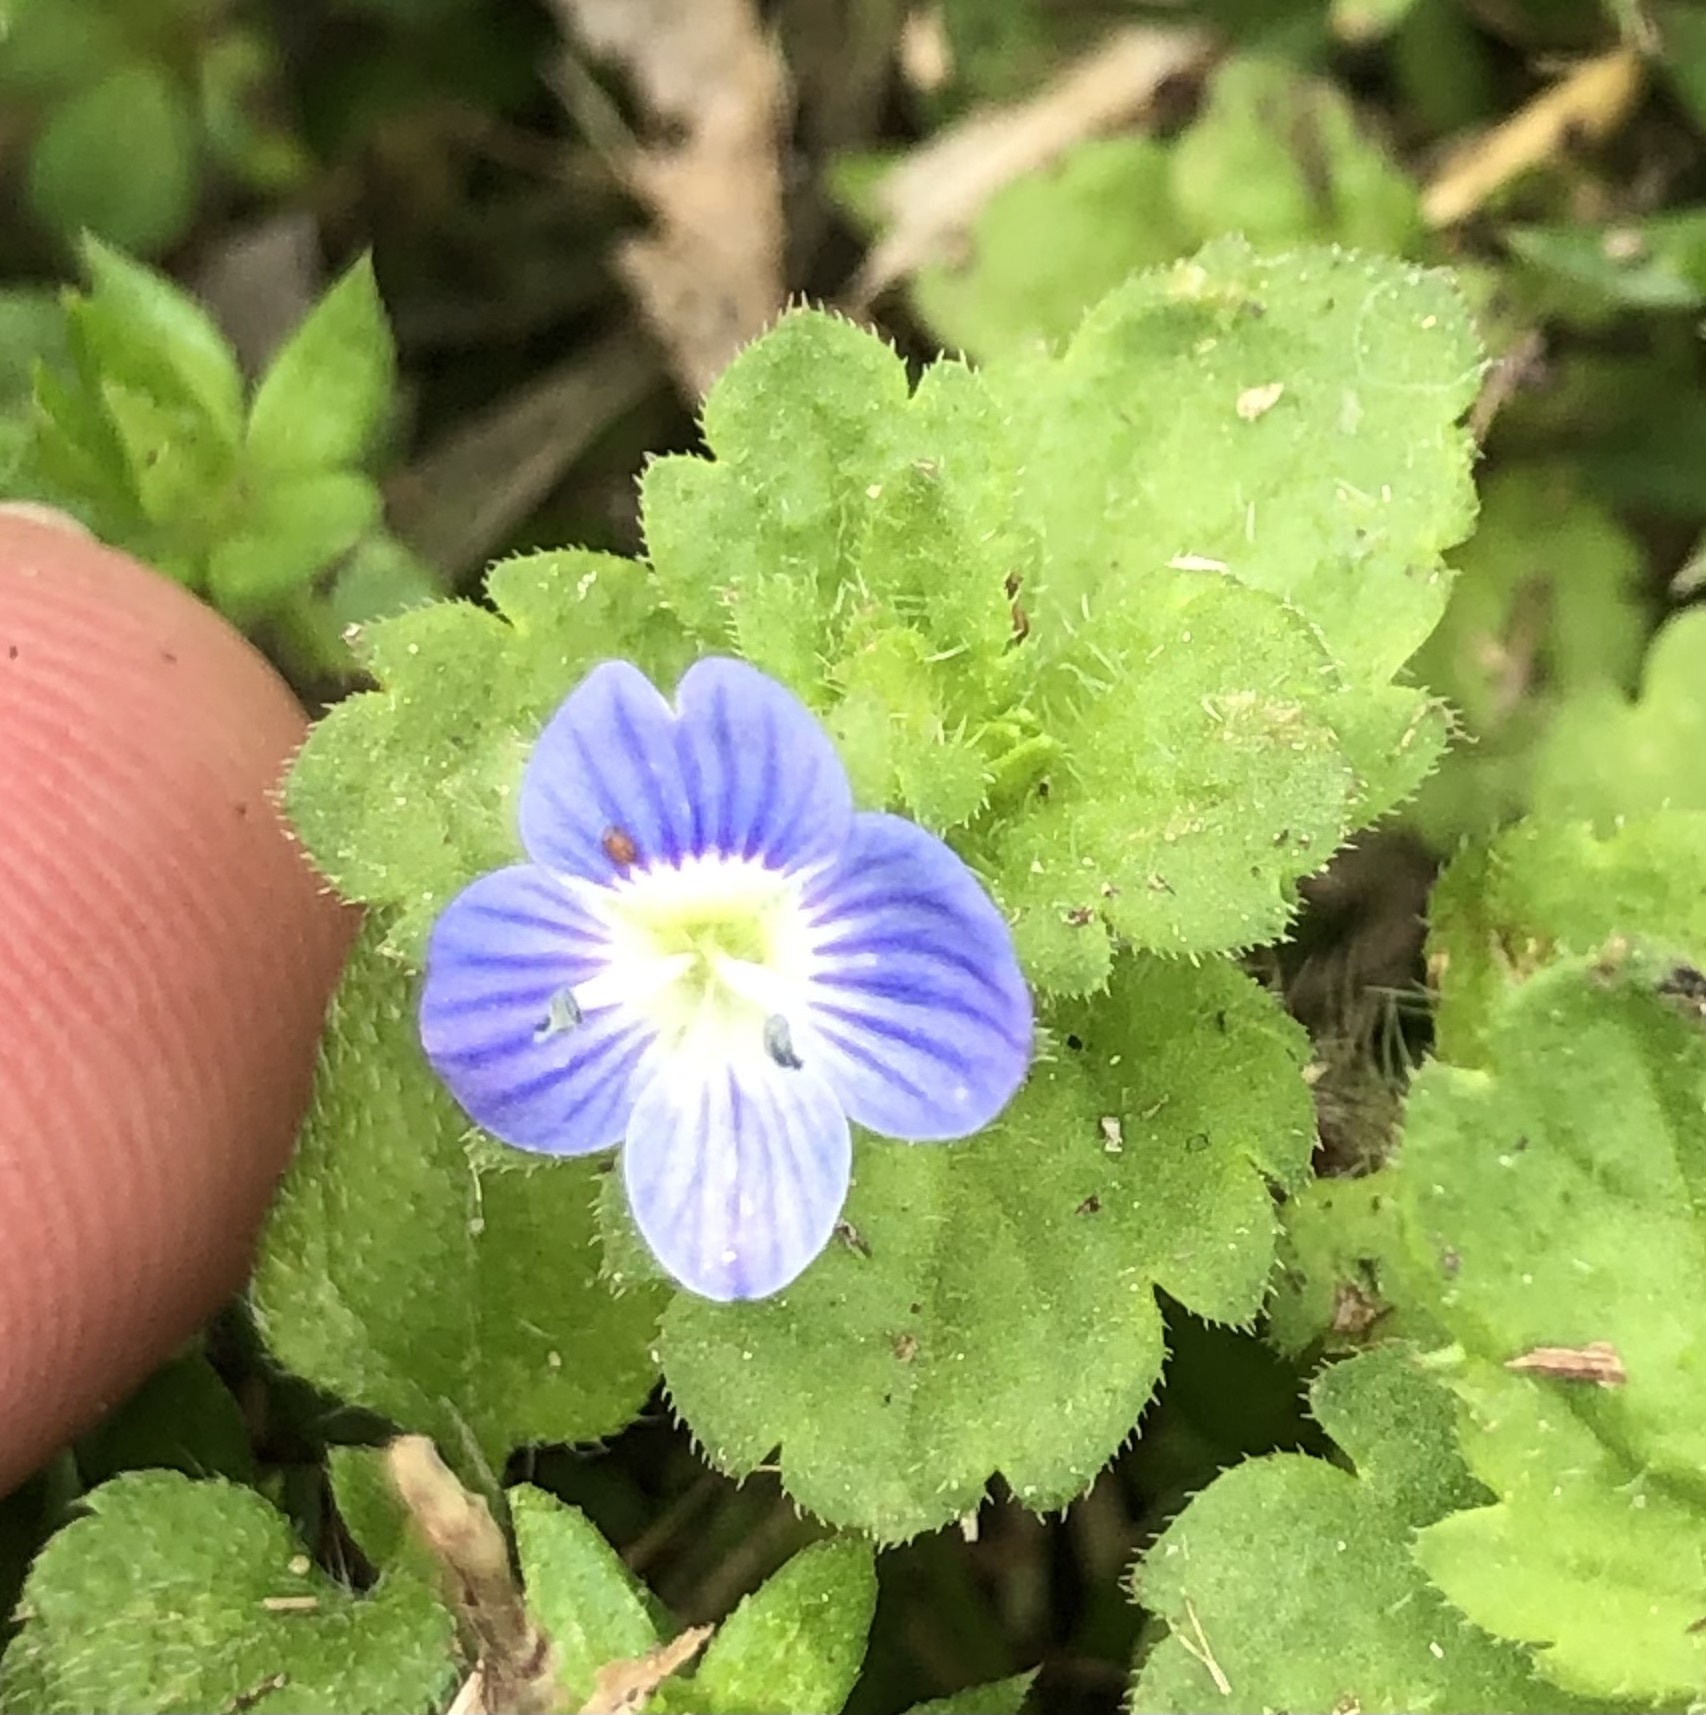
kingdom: Plantae
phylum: Tracheophyta
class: Magnoliopsida
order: Lamiales
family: Plantaginaceae
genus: Veronica
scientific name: Veronica persica
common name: Common field-speedwell
